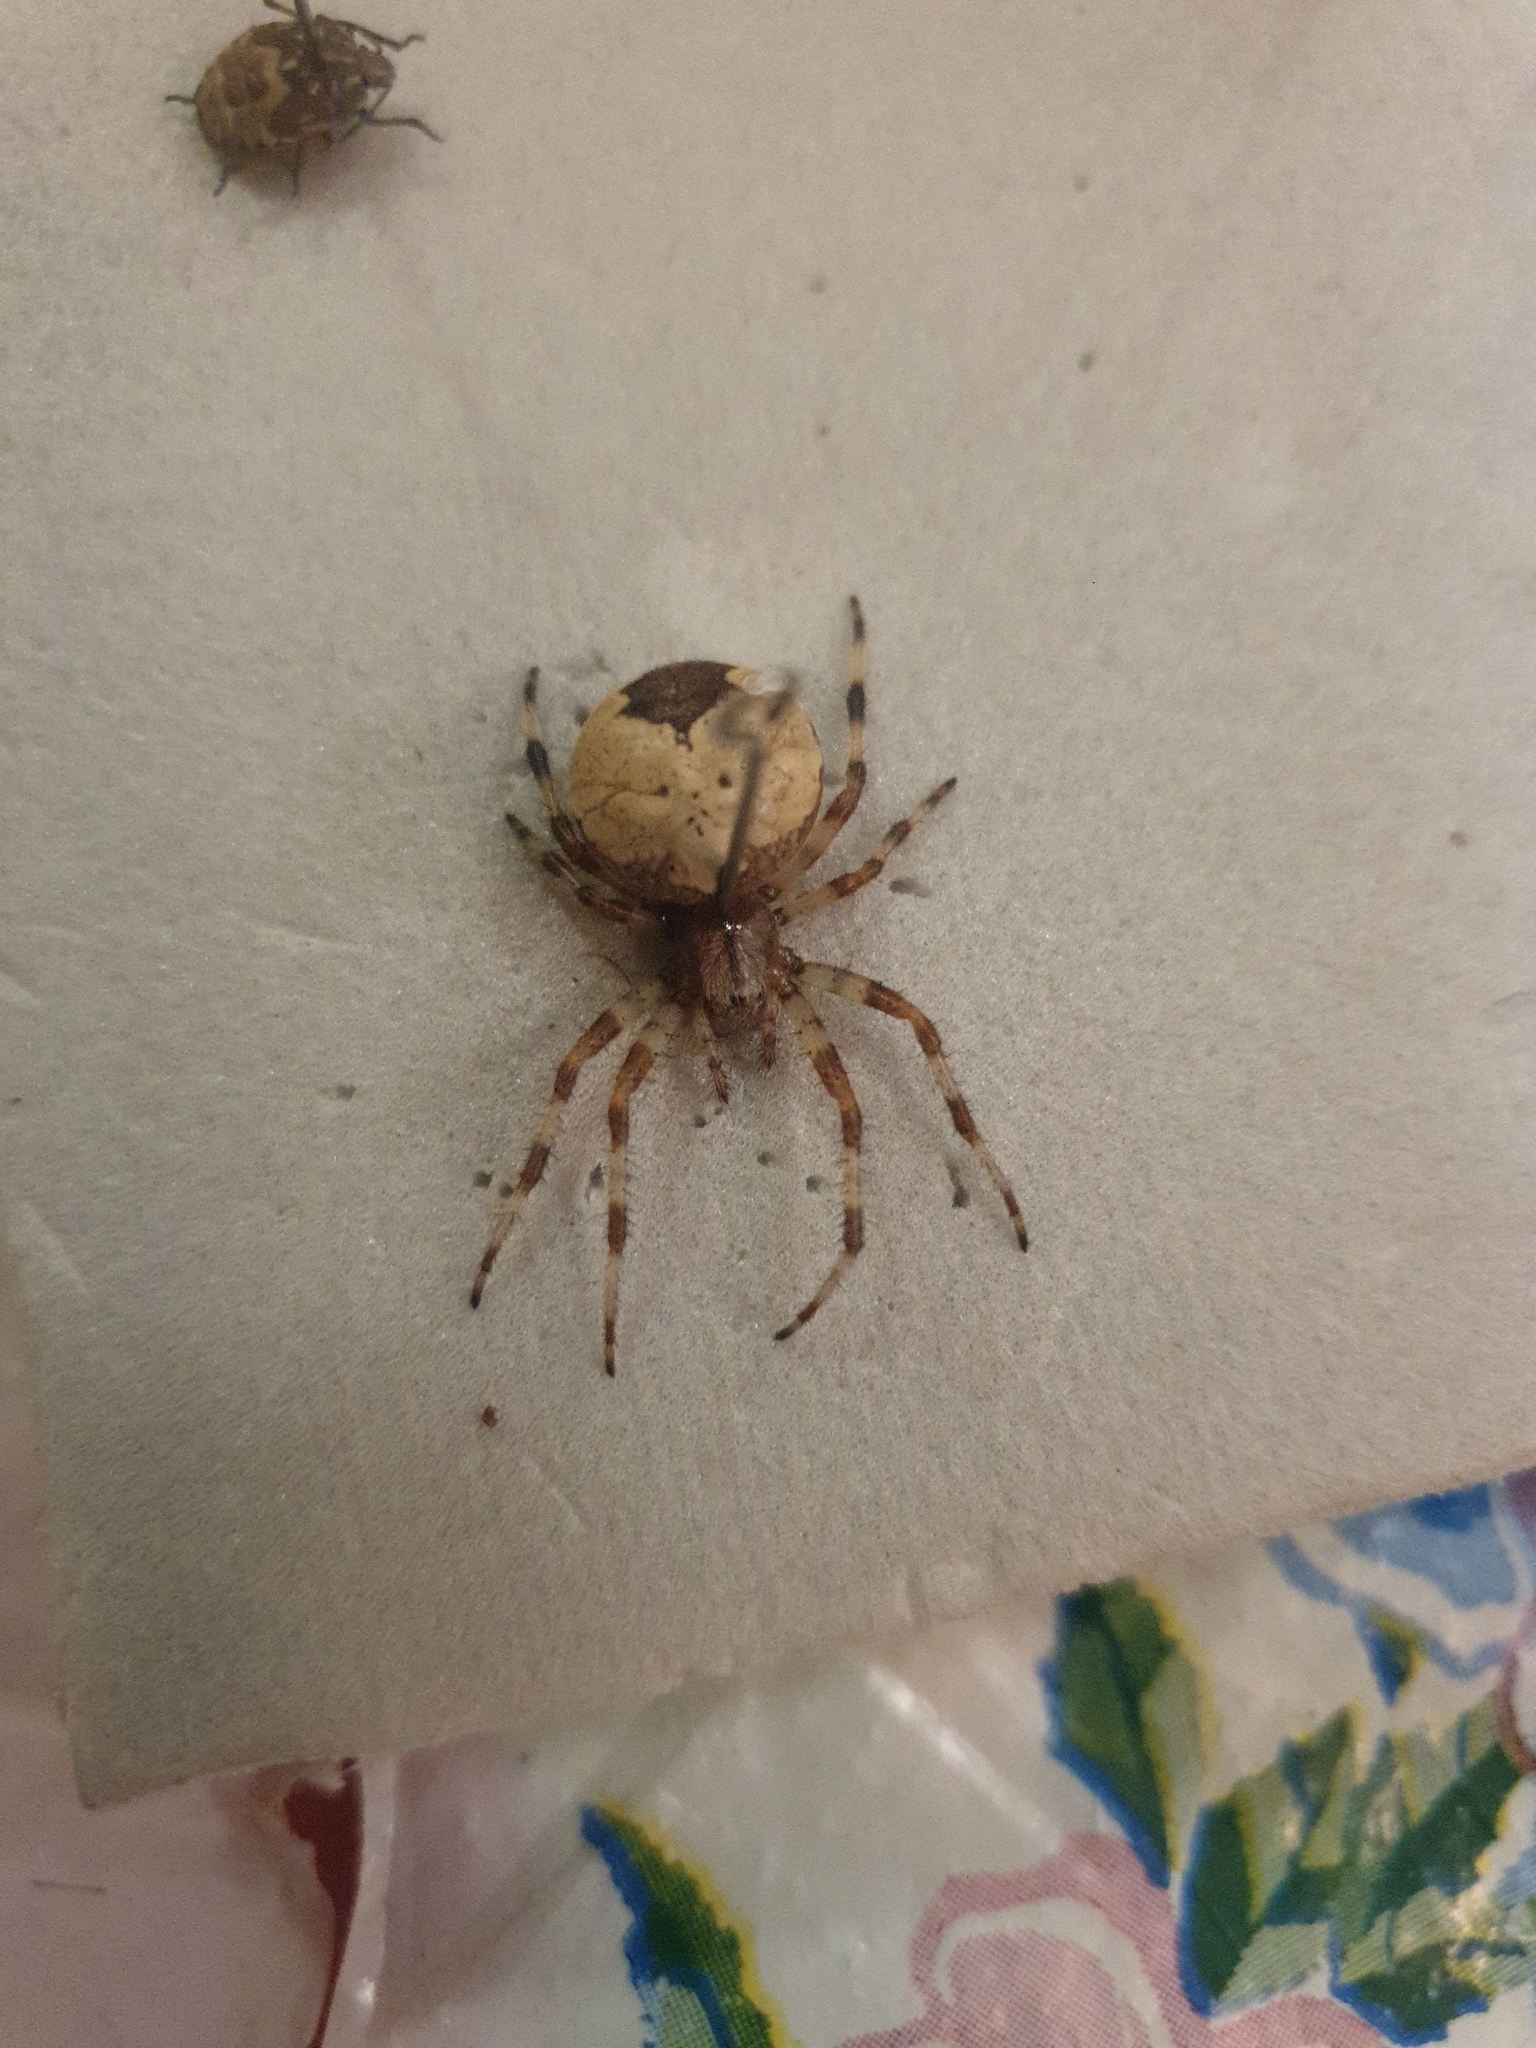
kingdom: Animalia
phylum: Arthropoda
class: Arachnida
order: Araneae
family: Araneidae
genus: Araneus
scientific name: Araneus marmoreus
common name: Marbled orbweaver
